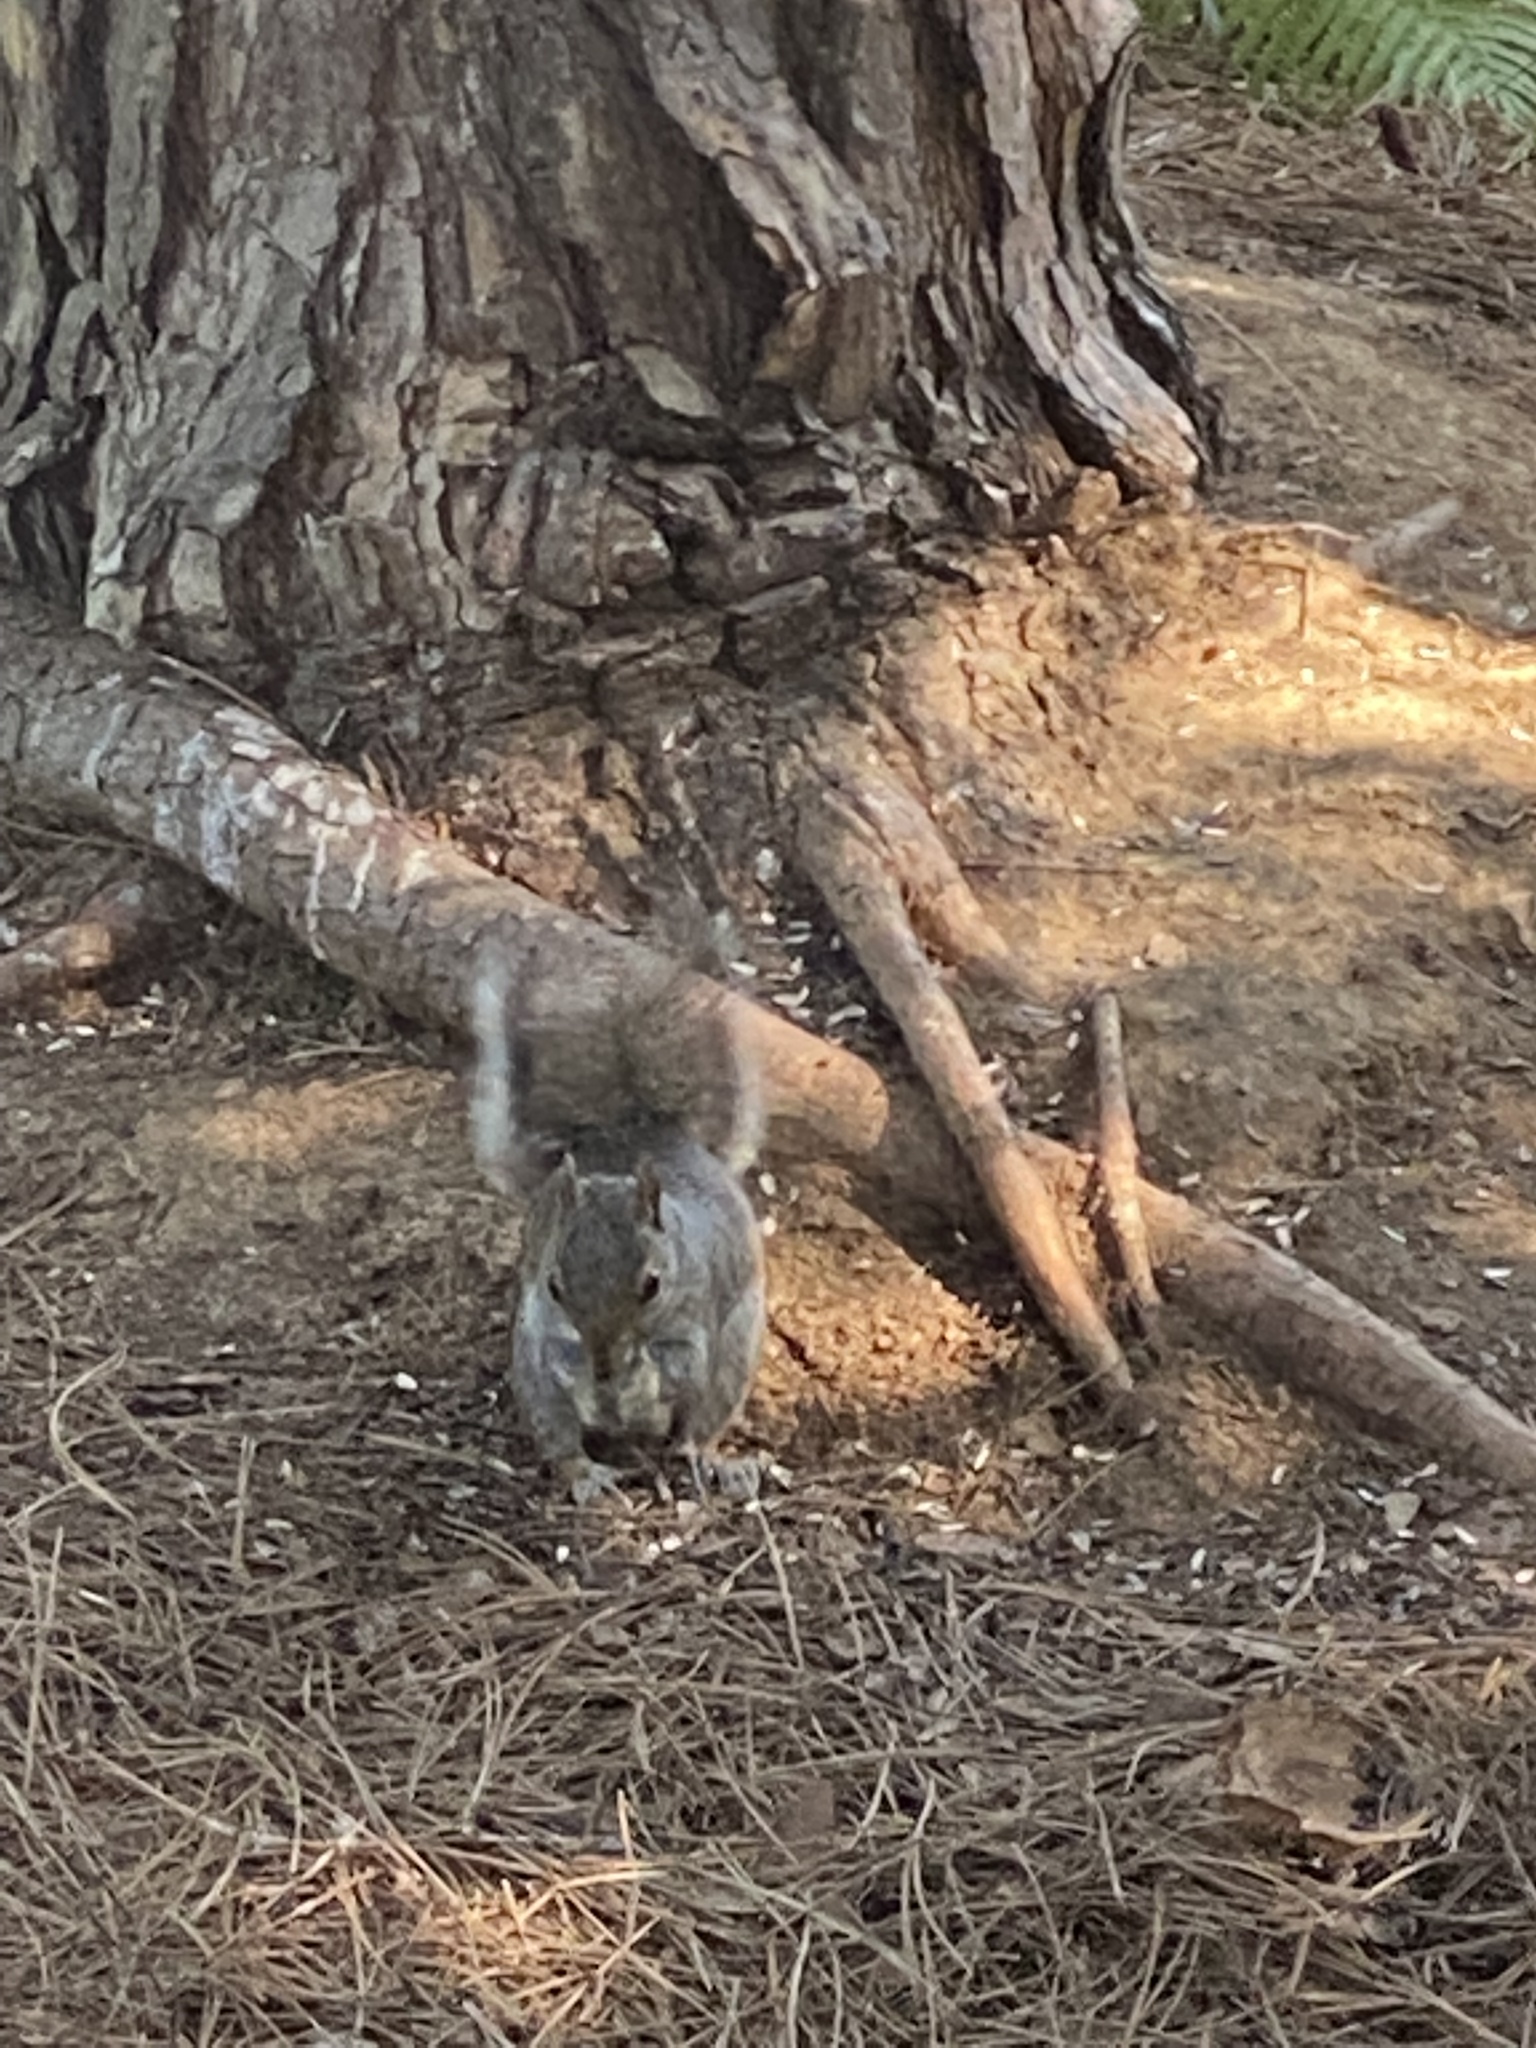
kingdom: Animalia
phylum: Chordata
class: Mammalia
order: Rodentia
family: Sciuridae
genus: Sciurus
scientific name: Sciurus carolinensis
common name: Eastern gray squirrel
